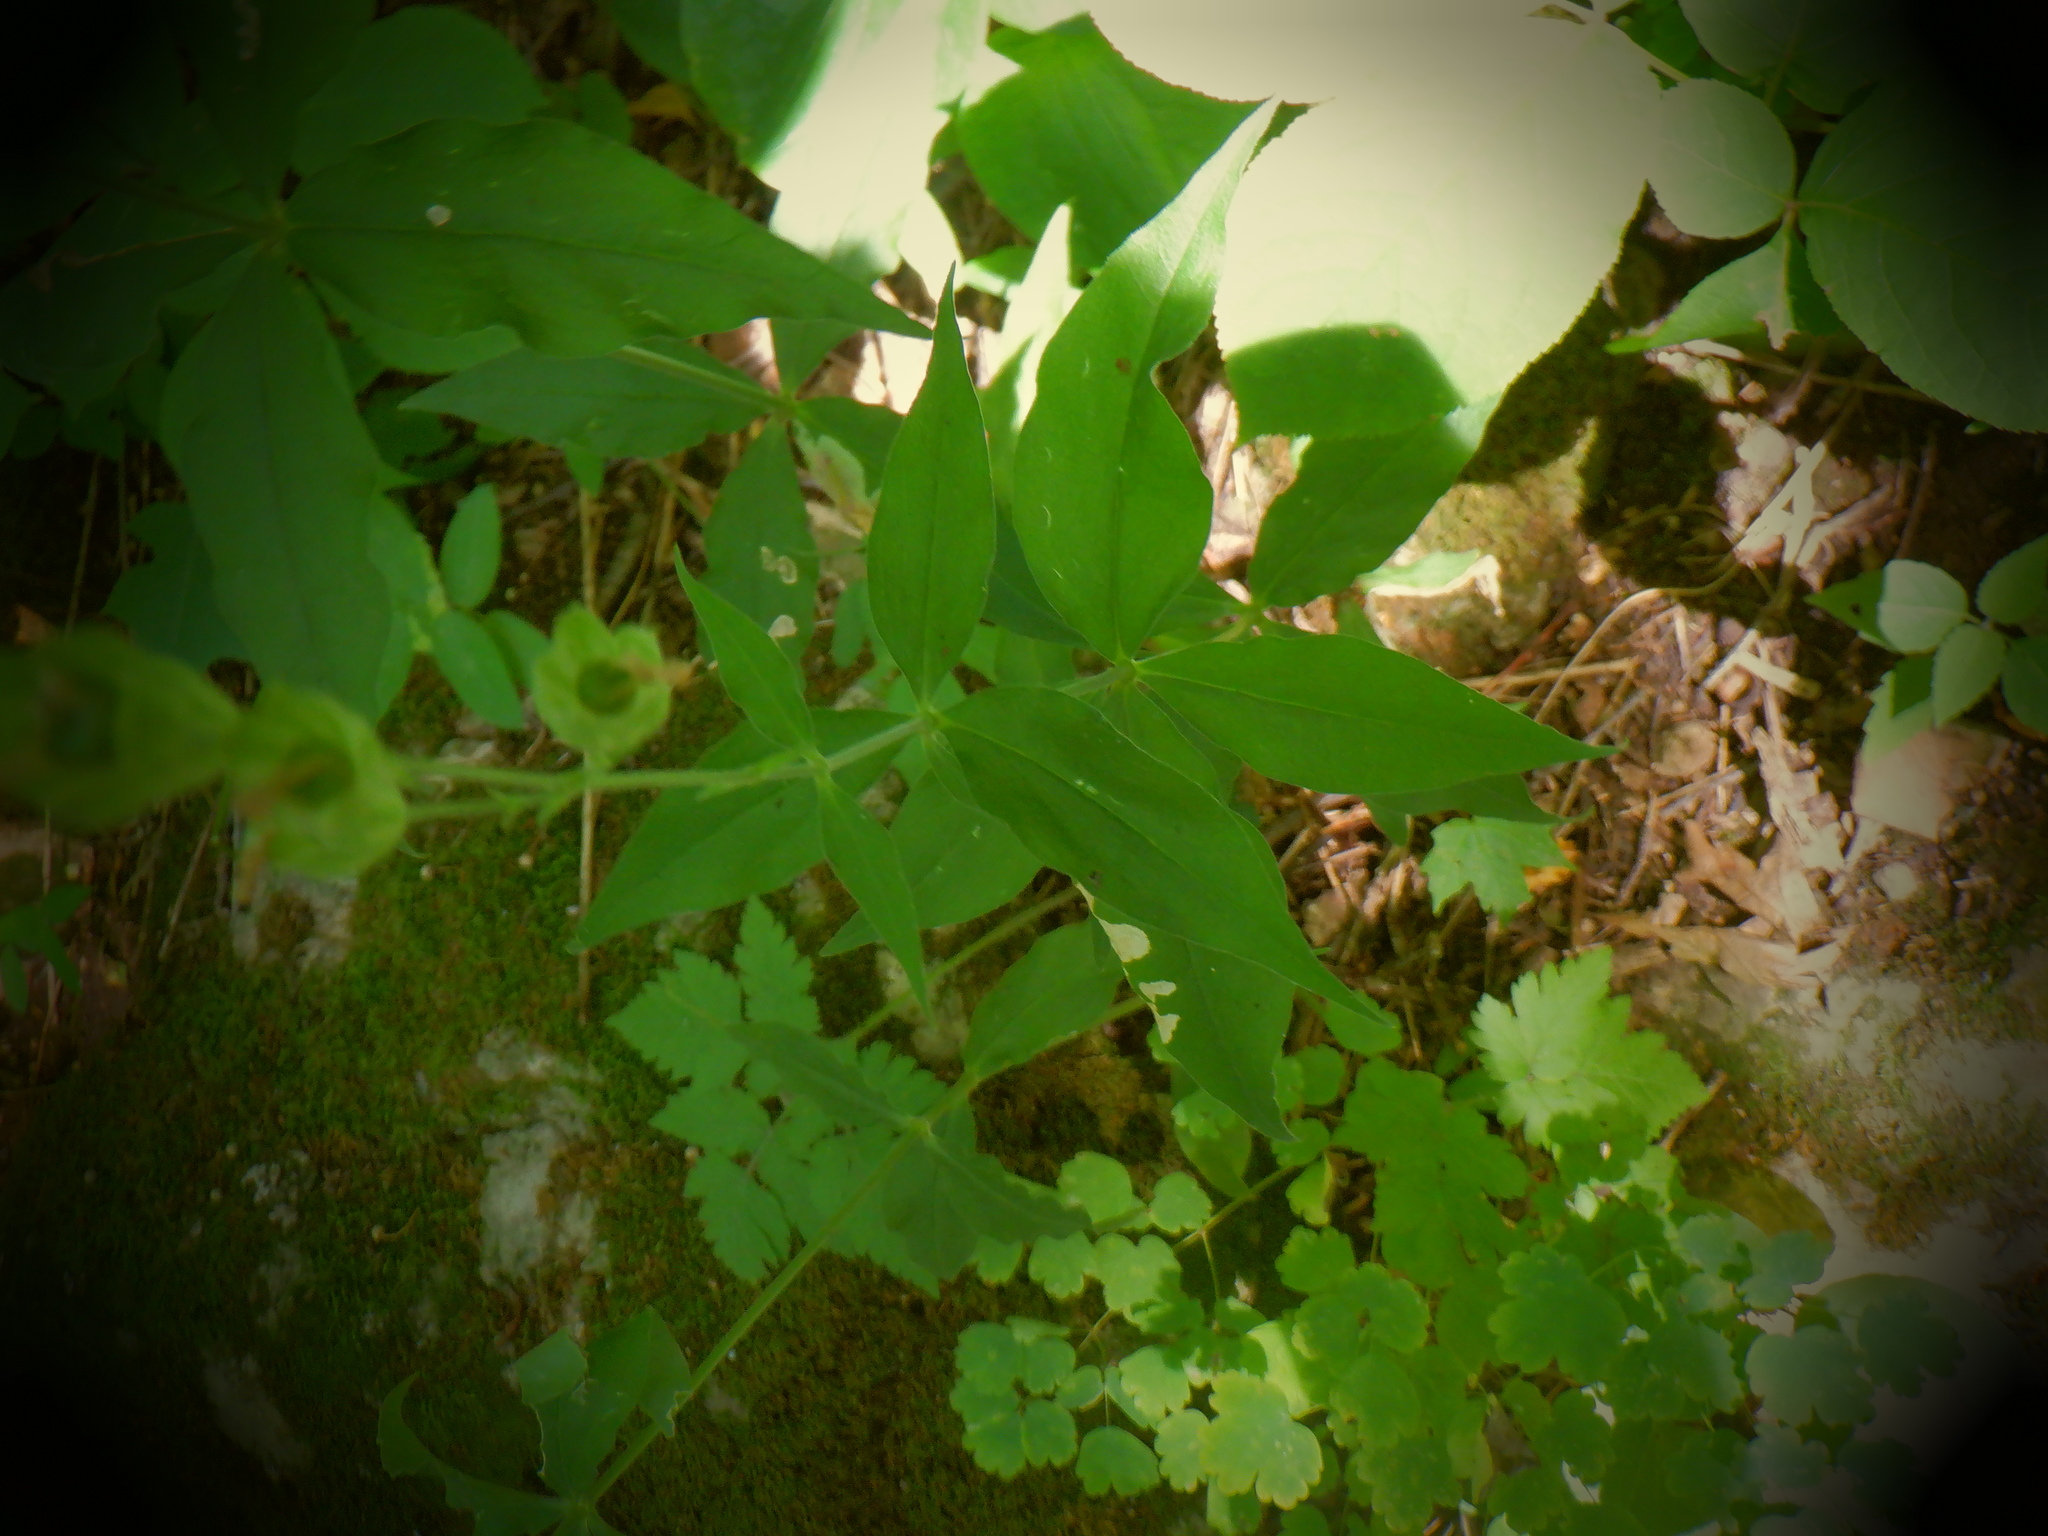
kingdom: Plantae
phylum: Tracheophyta
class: Magnoliopsida
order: Caryophyllales
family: Caryophyllaceae
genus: Silene
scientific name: Silene stellata
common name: Starry campion
